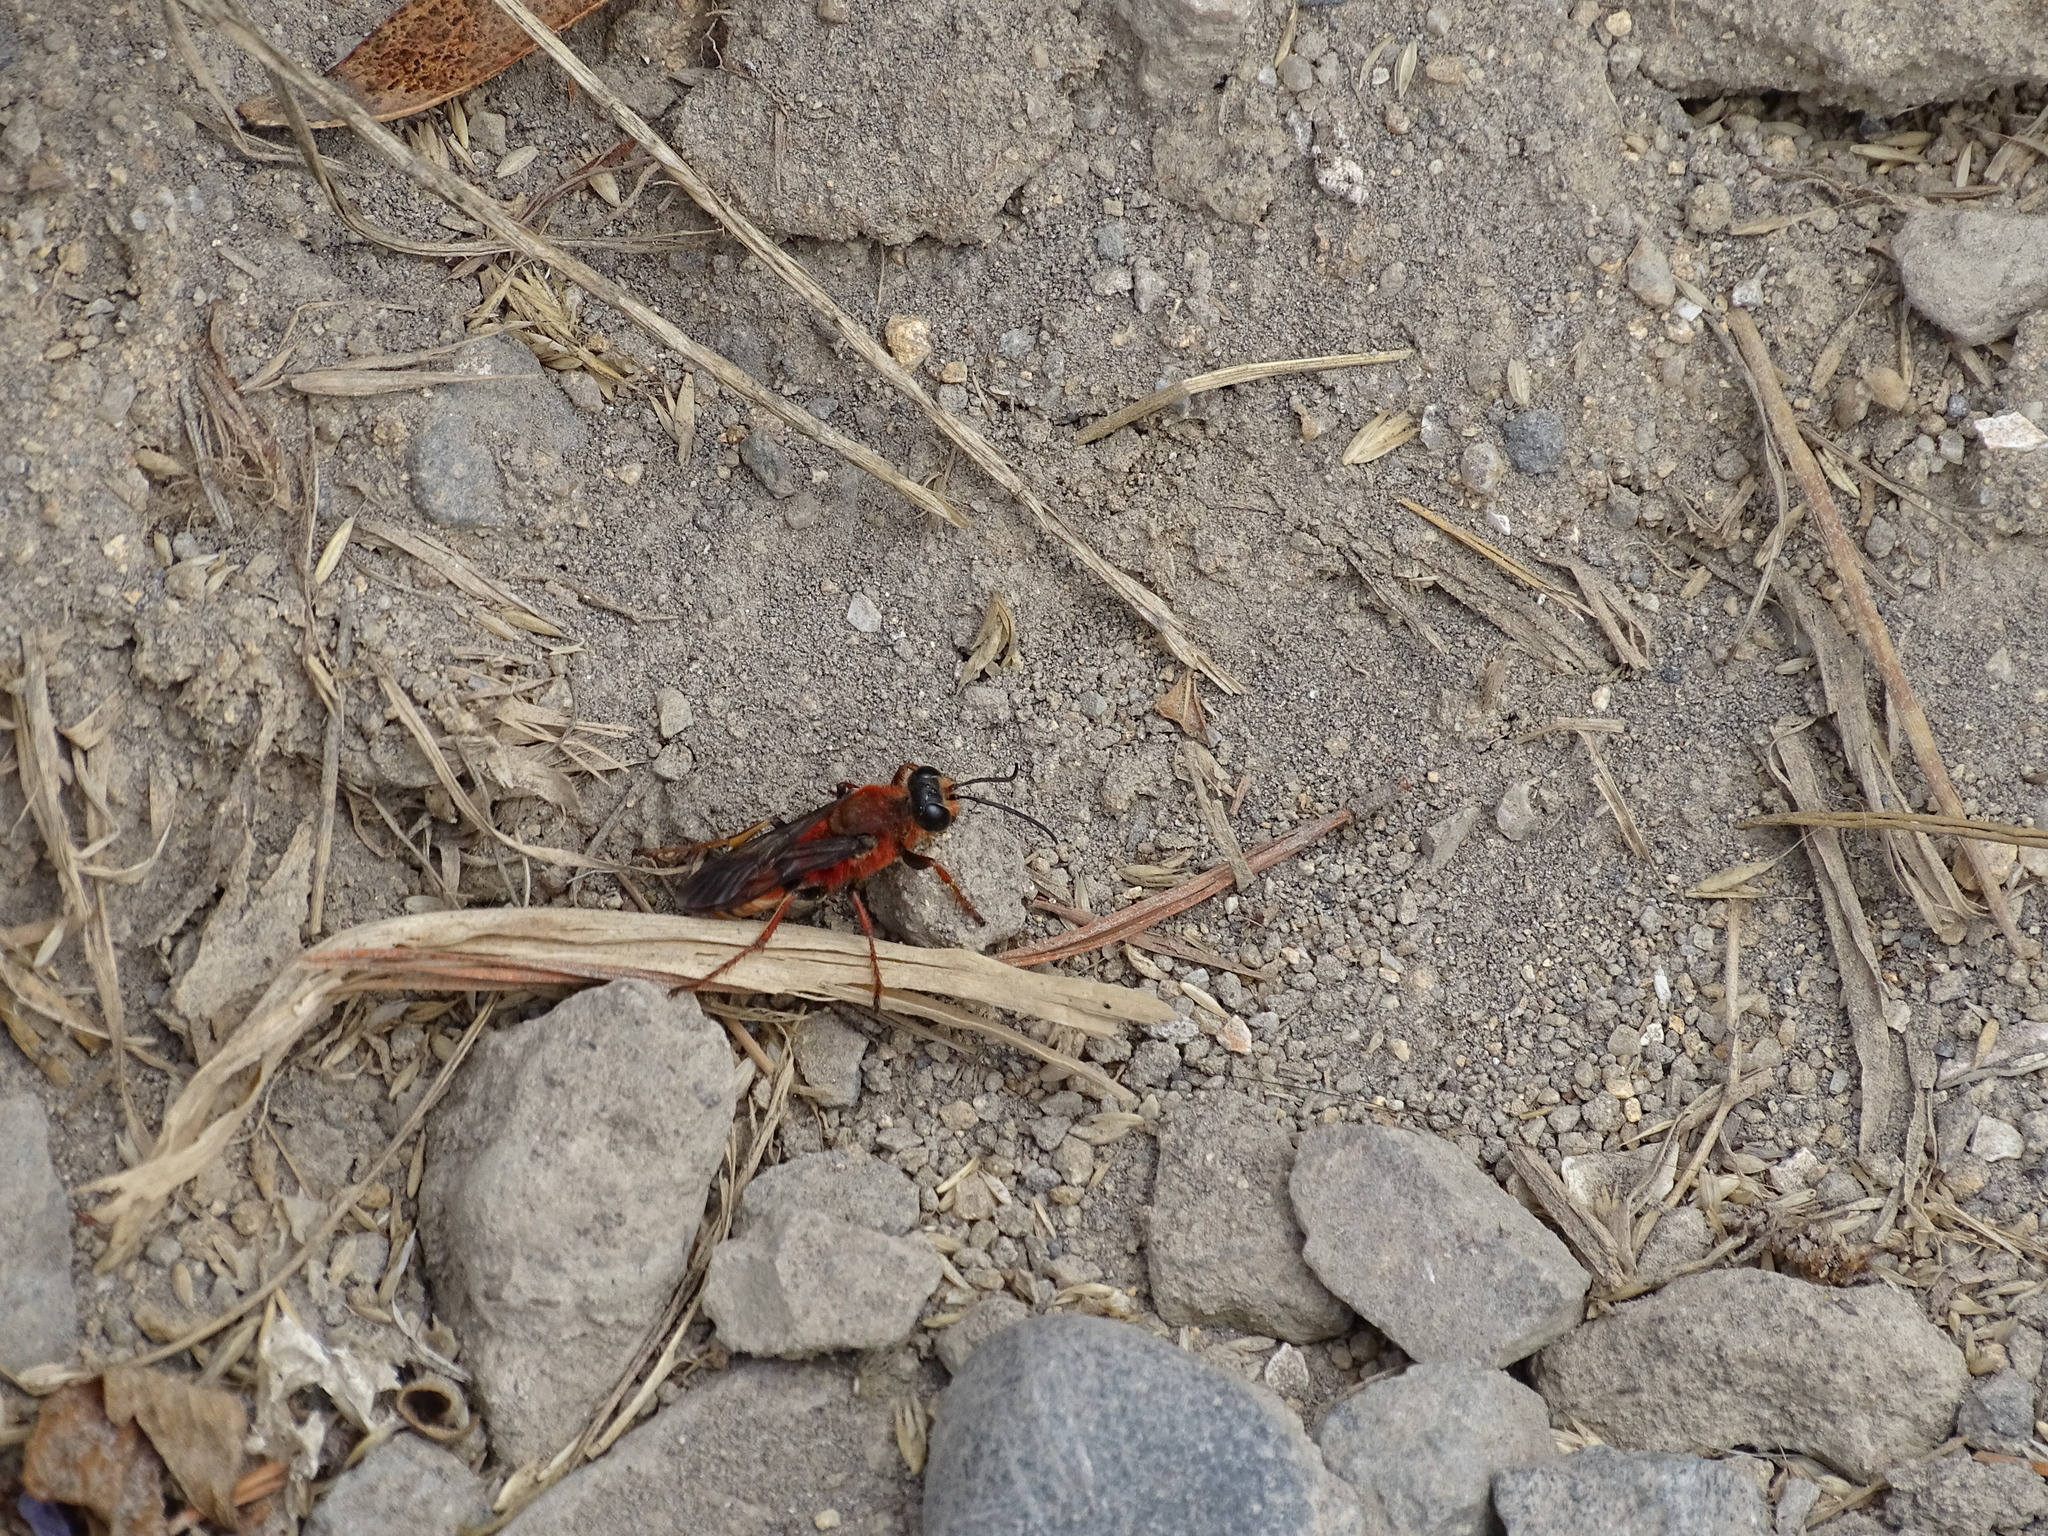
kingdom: Animalia
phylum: Arthropoda
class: Insecta
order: Hymenoptera
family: Sphecidae
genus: Sphex
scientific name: Sphex latreillei
